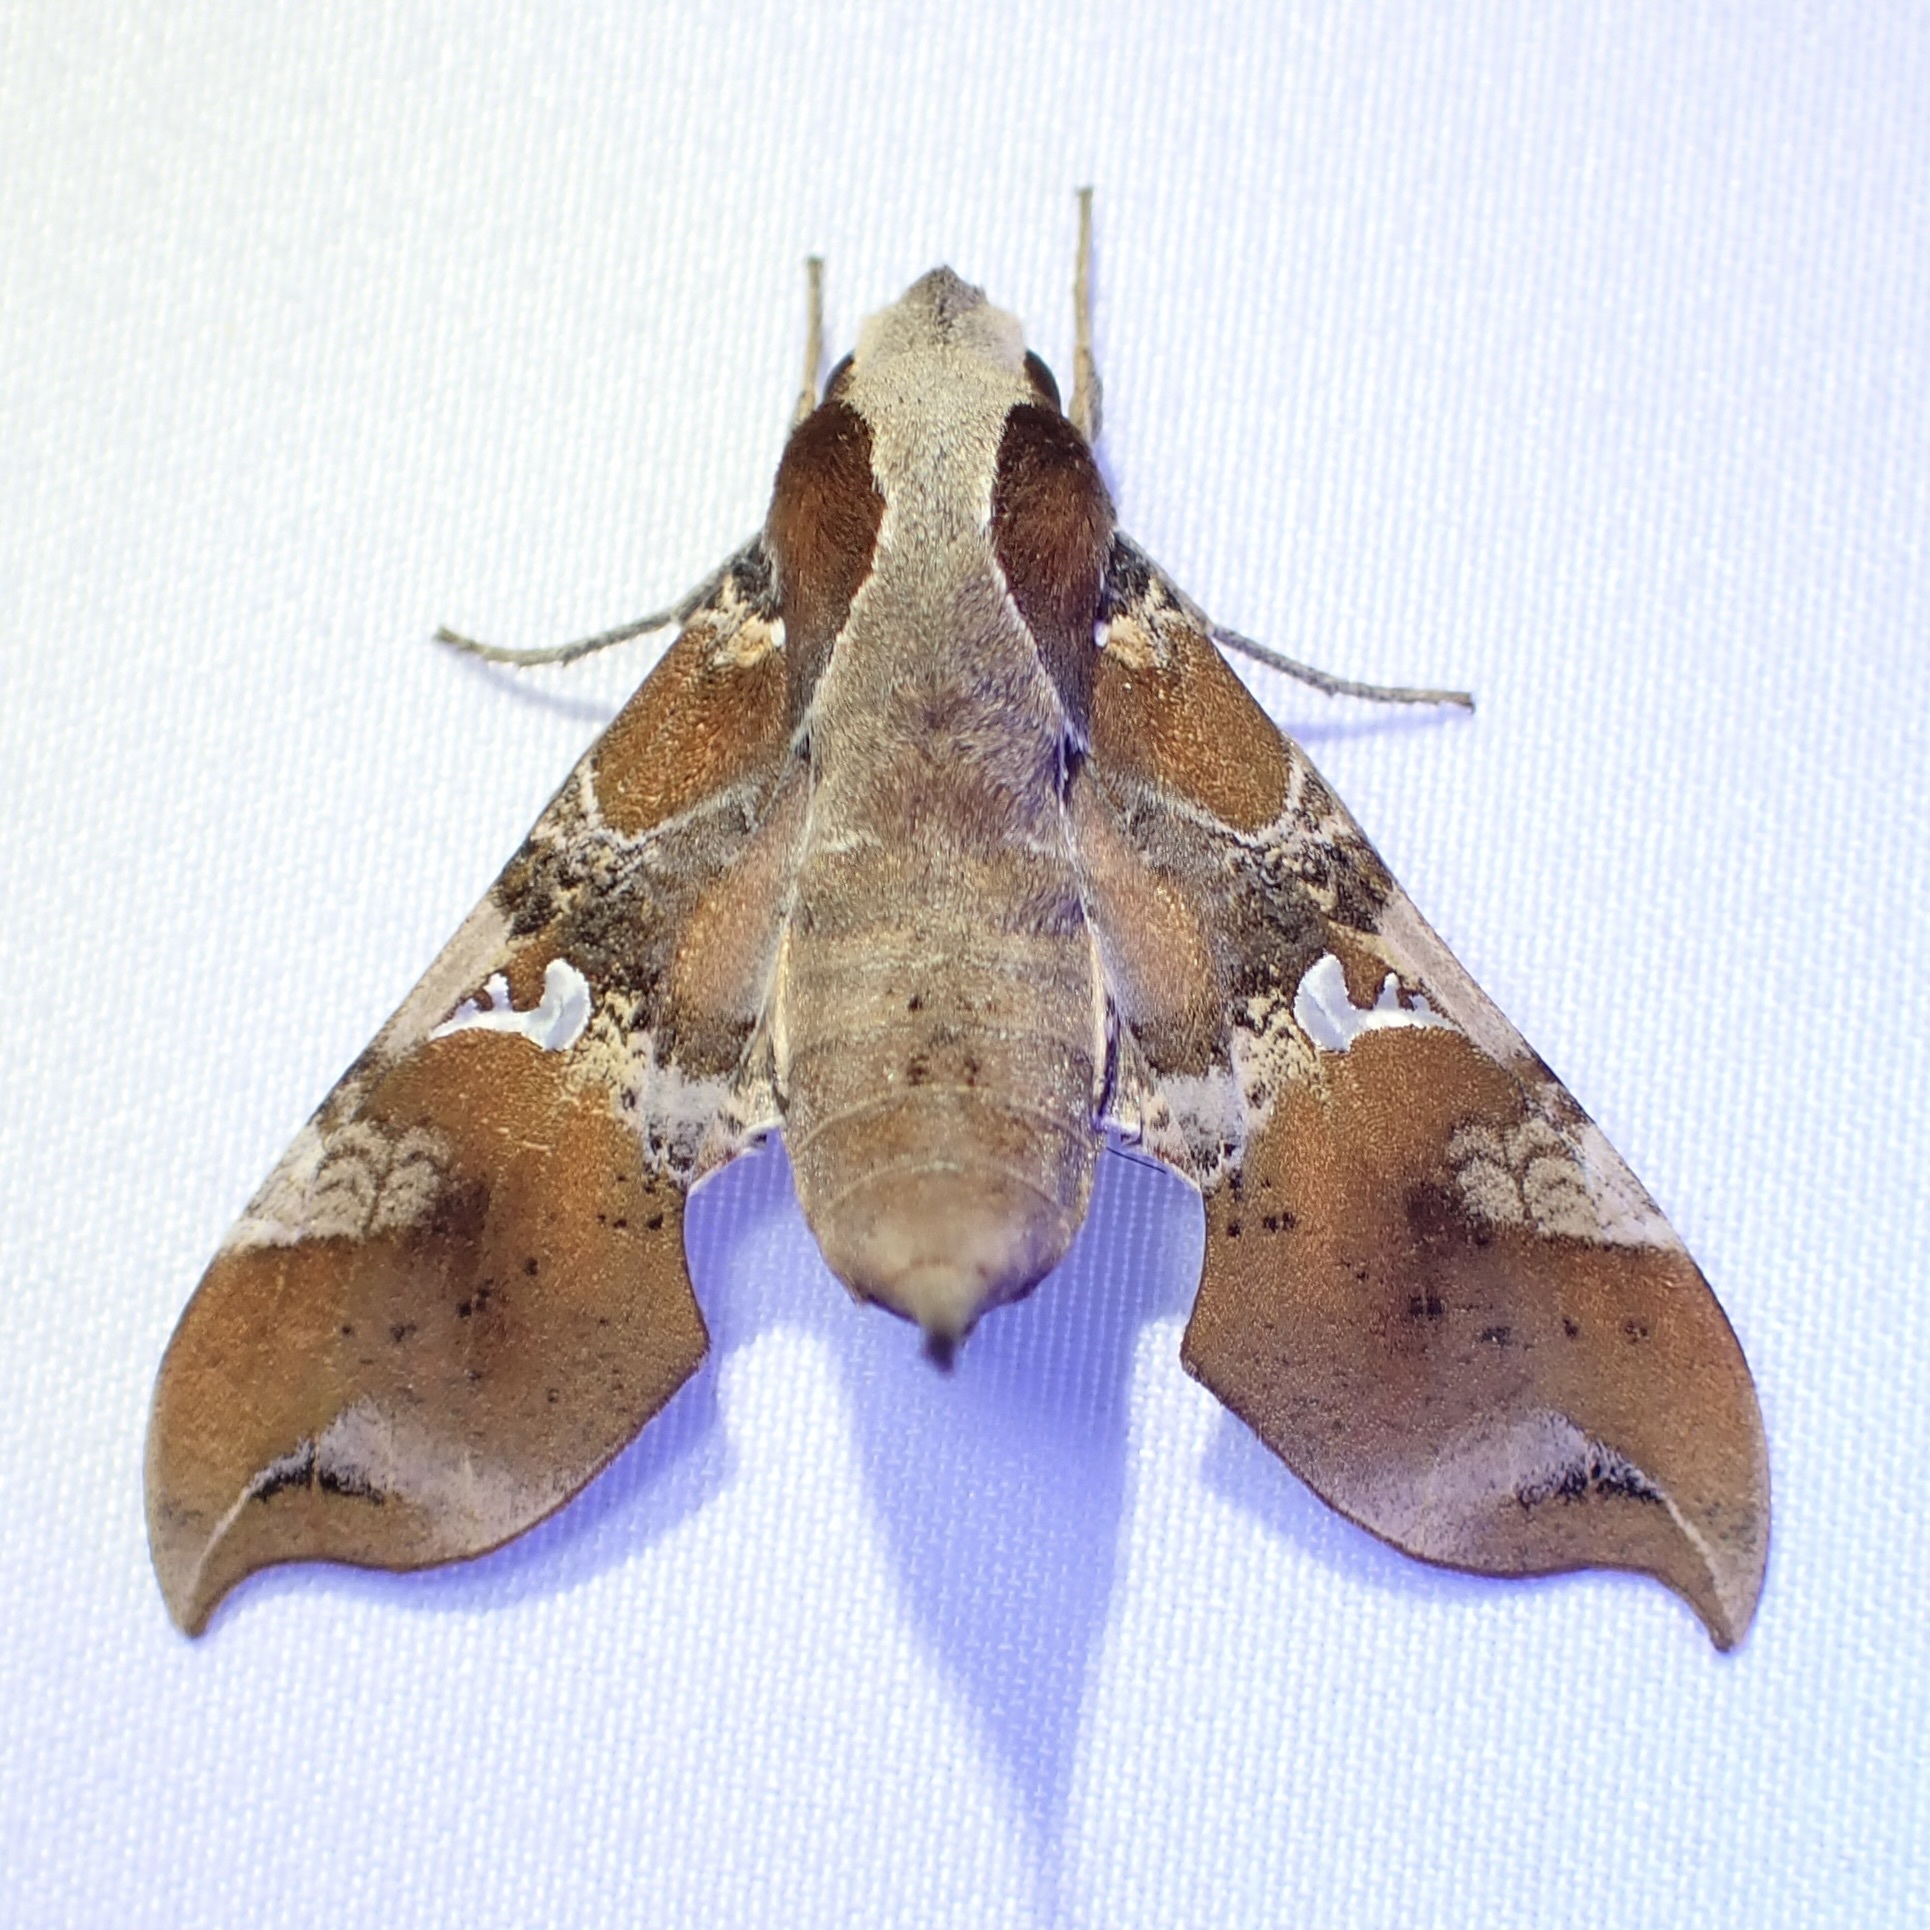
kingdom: Animalia
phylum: Arthropoda
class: Insecta
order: Lepidoptera
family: Sphingidae
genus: Callionima
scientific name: Callionima falcifera
